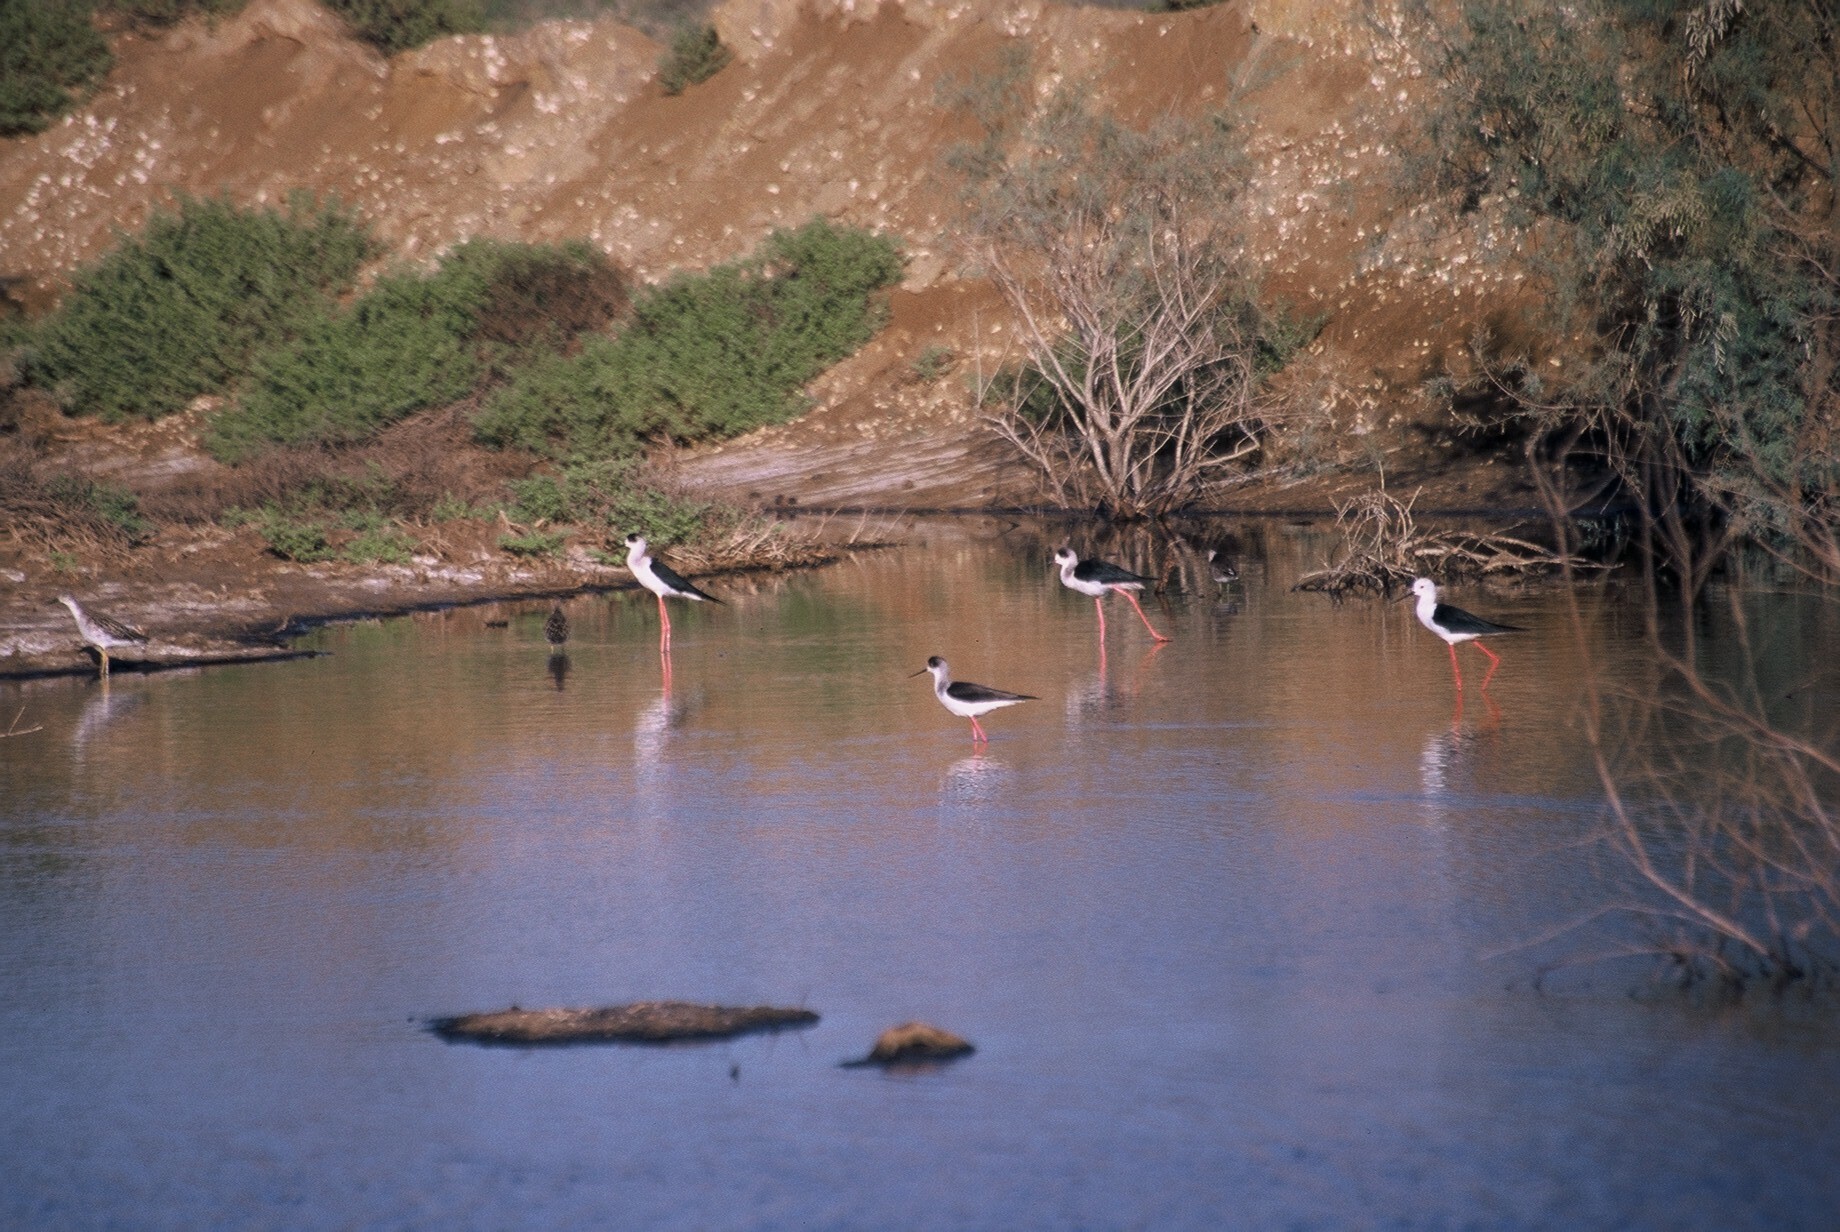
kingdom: Animalia
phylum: Chordata
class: Aves
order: Charadriiformes
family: Recurvirostridae
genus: Himantopus
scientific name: Himantopus himantopus
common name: Black-winged stilt
